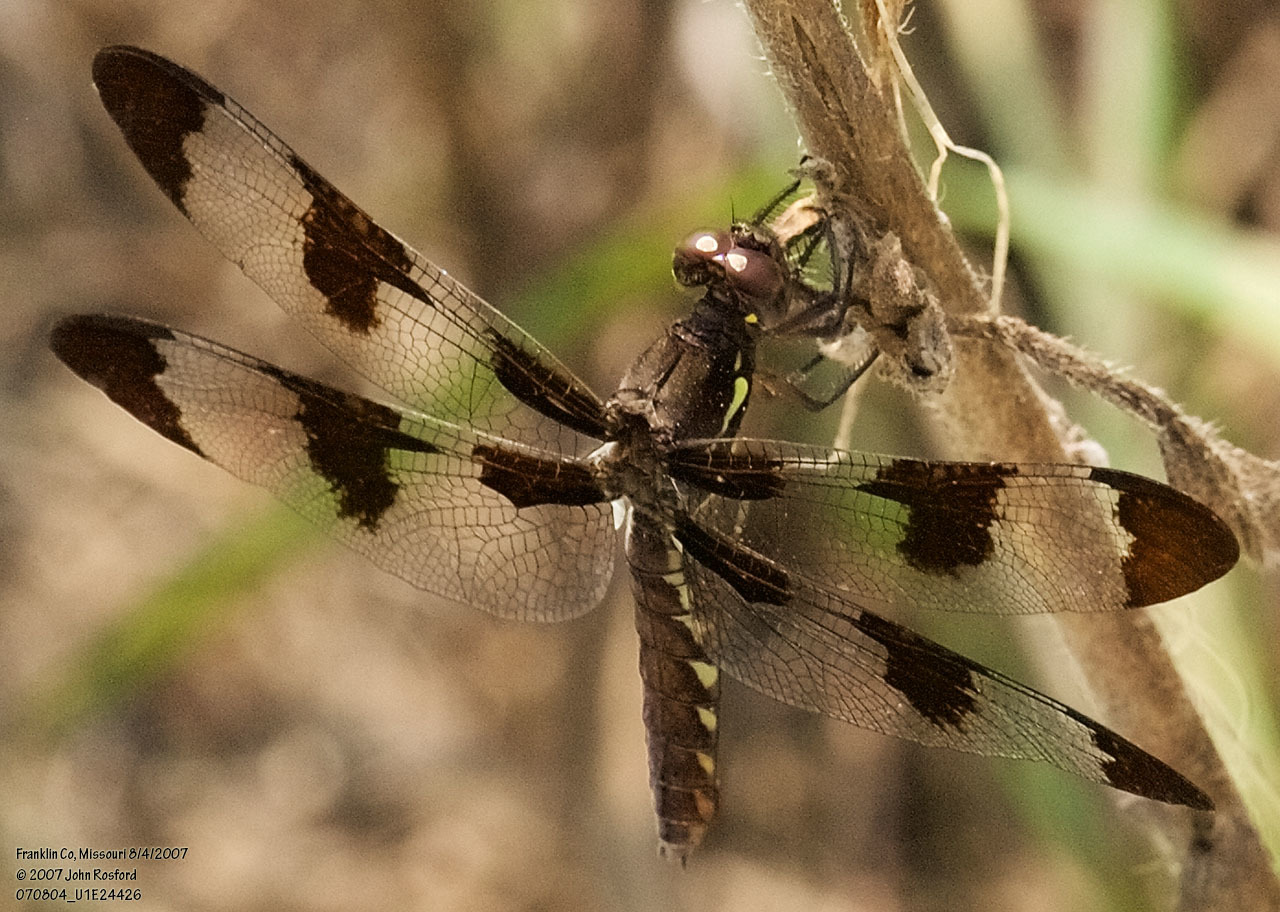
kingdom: Animalia
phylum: Arthropoda
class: Insecta
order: Odonata
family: Libellulidae
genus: Plathemis
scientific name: Plathemis lydia
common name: Common whitetail
